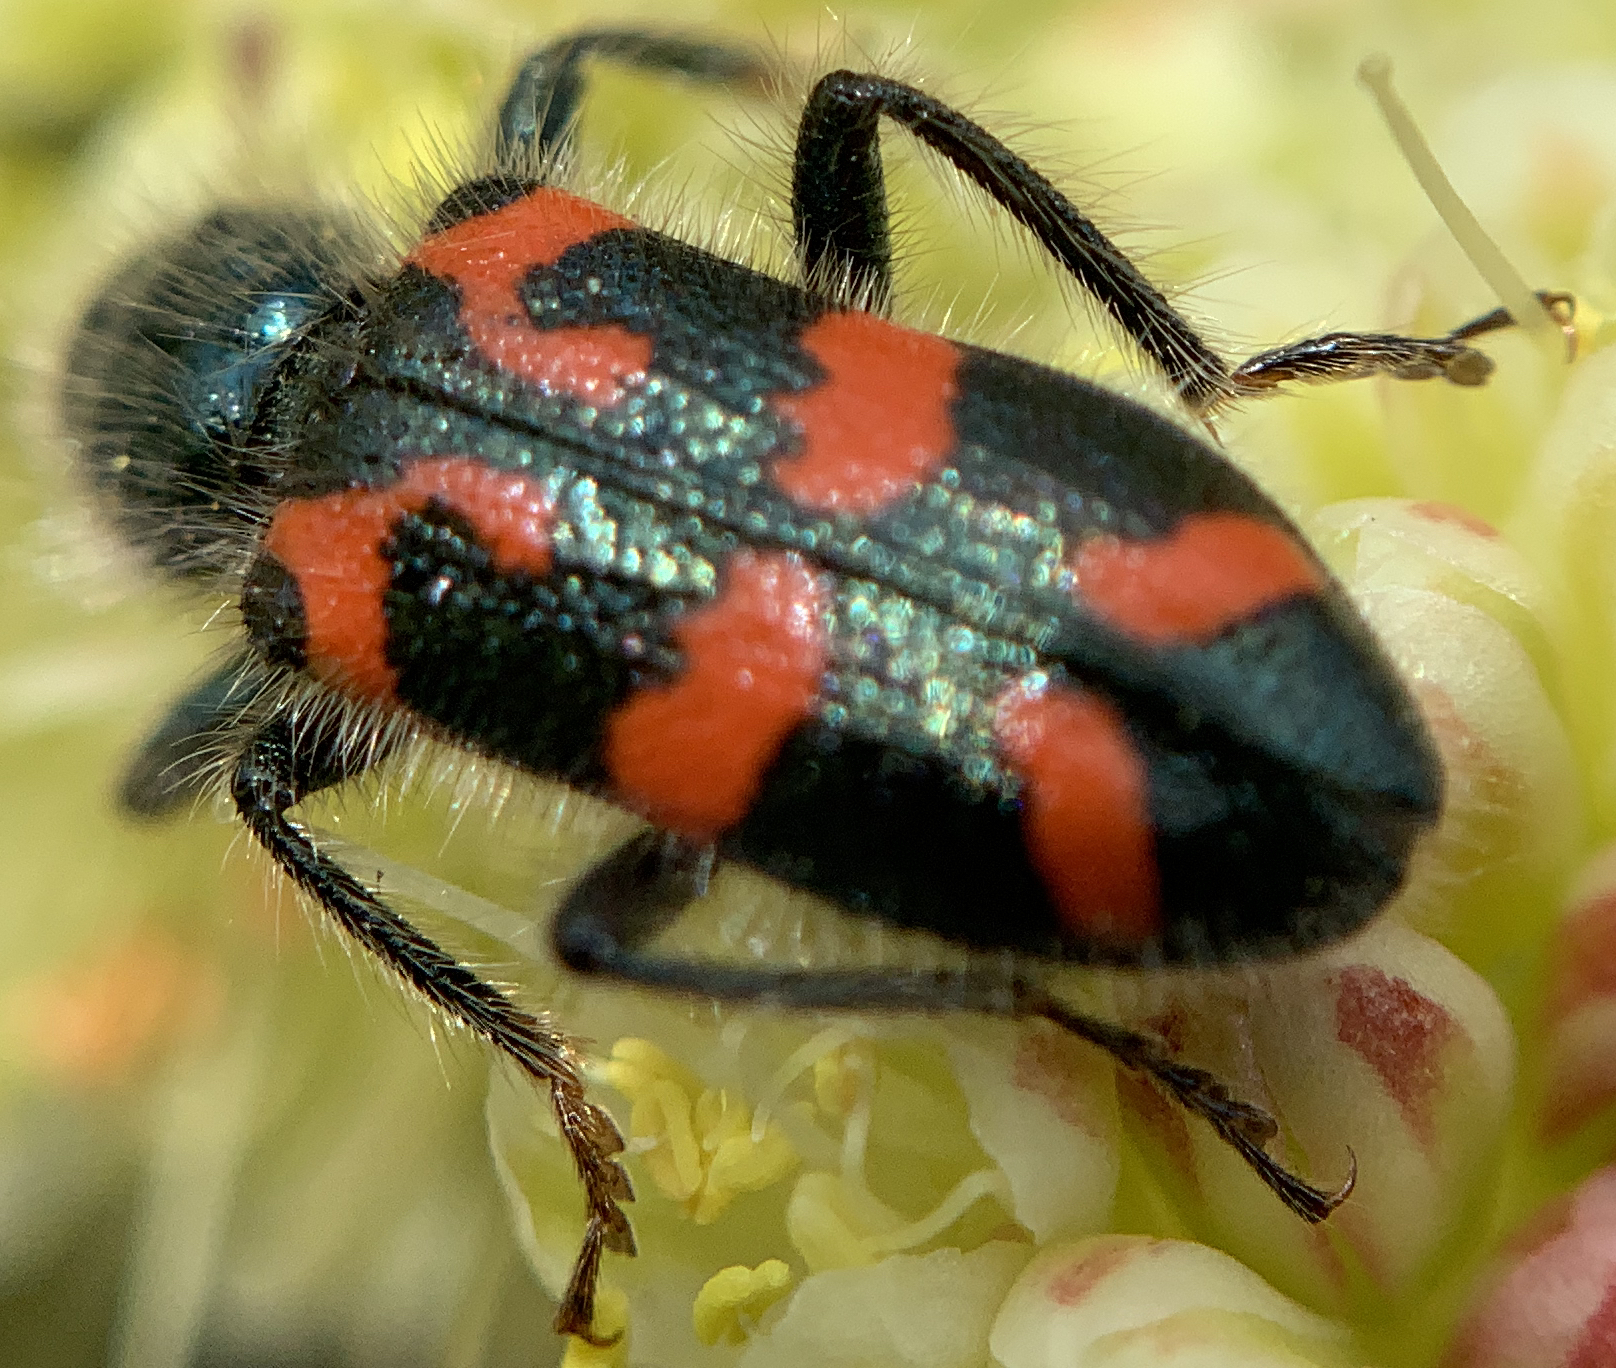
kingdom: Animalia
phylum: Arthropoda
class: Insecta
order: Coleoptera
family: Cleridae
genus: Trichodes
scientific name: Trichodes ornatus
